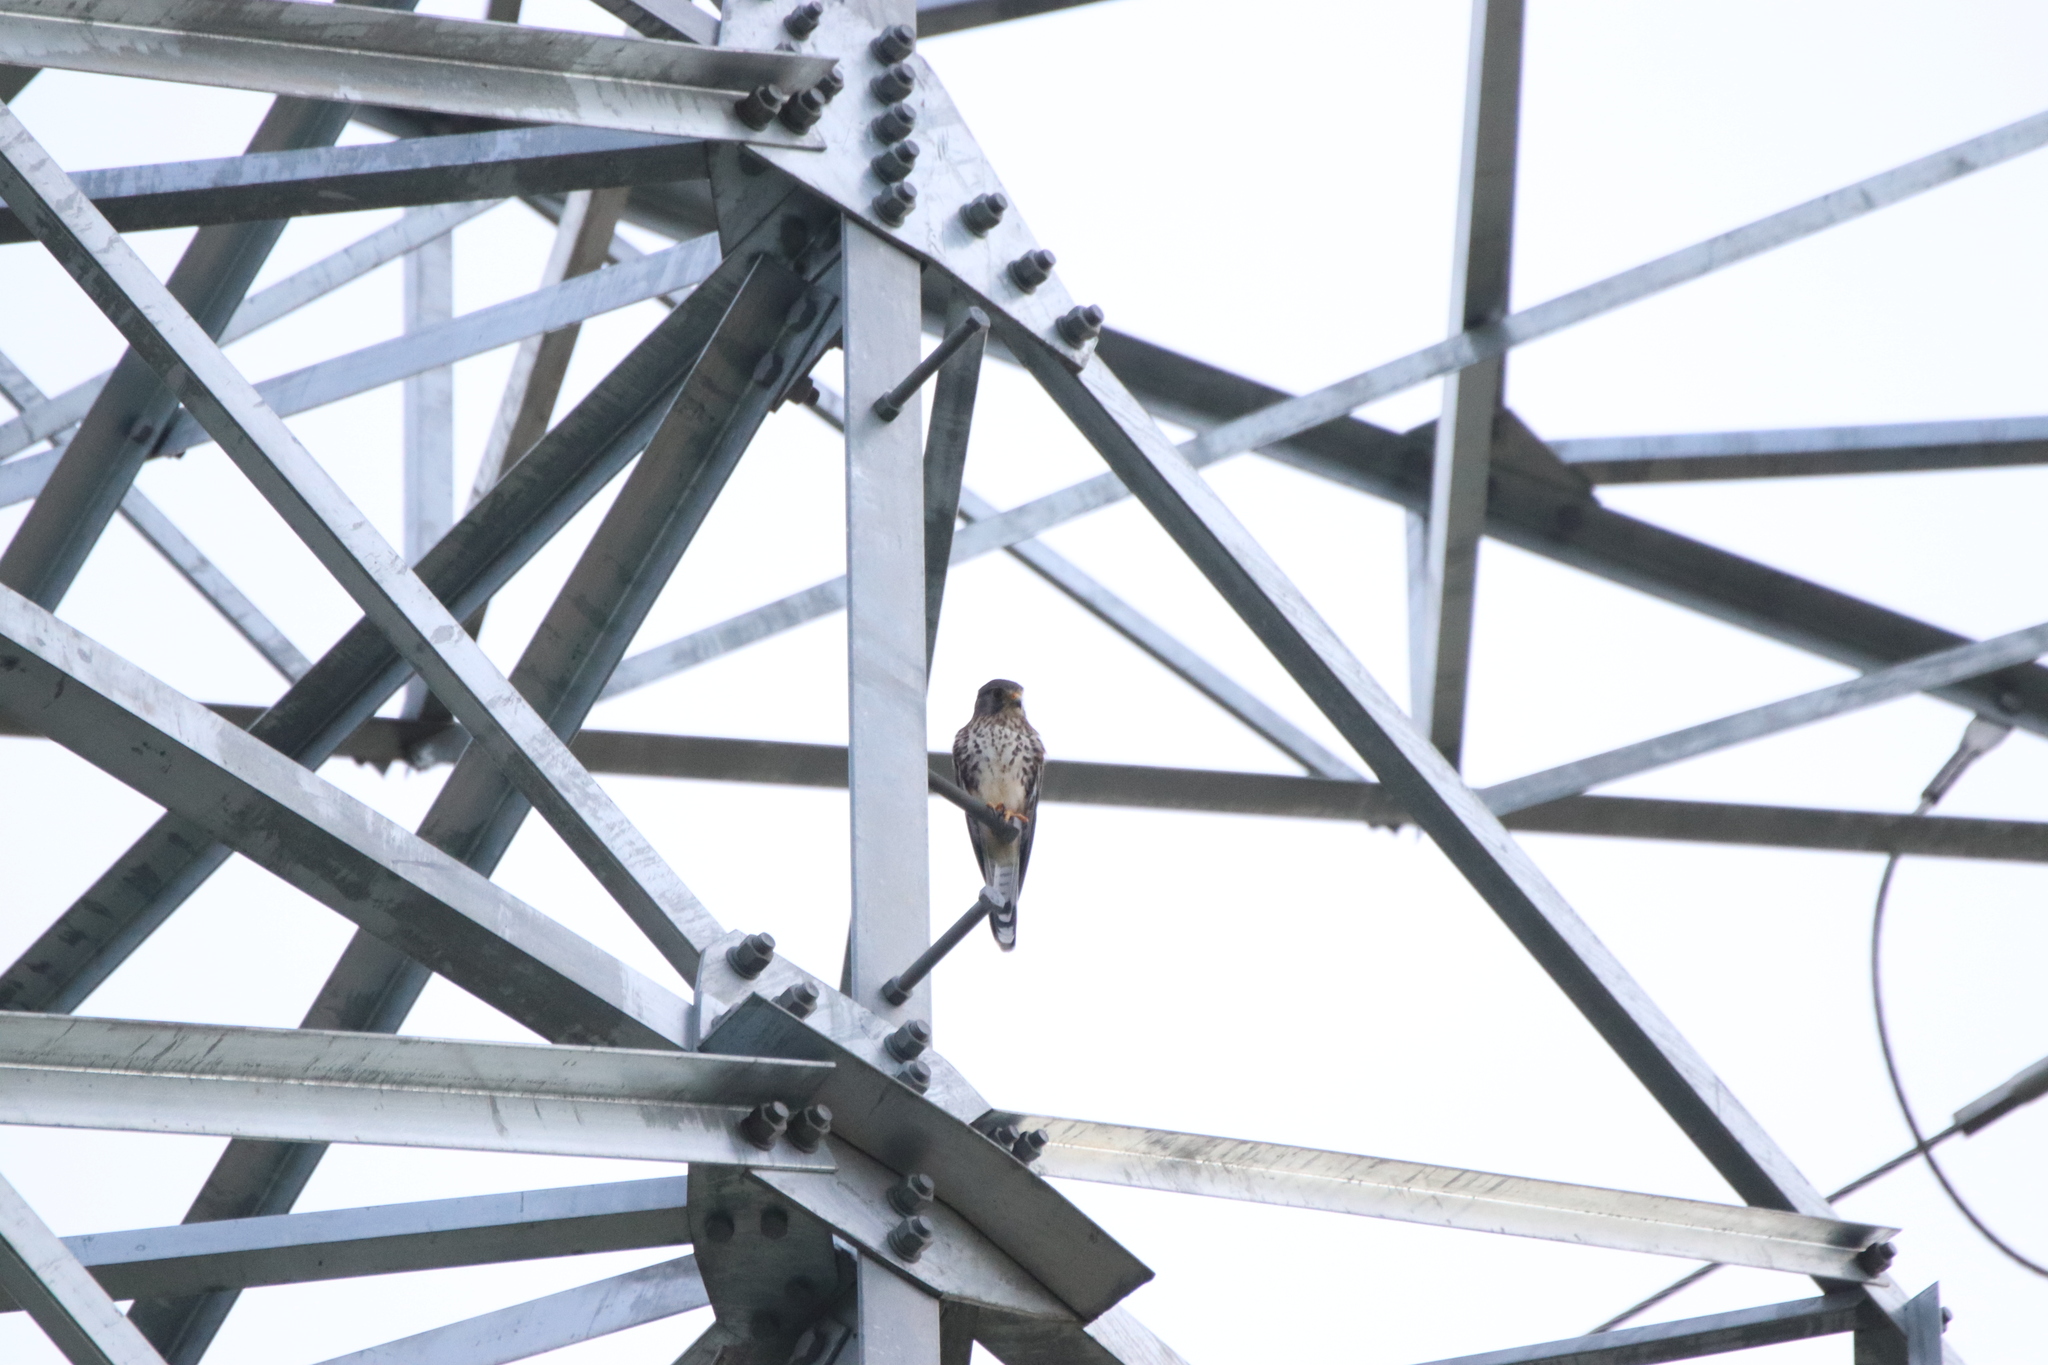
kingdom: Animalia
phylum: Chordata
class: Aves
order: Falconiformes
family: Falconidae
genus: Falco
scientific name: Falco tinnunculus
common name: Common kestrel
